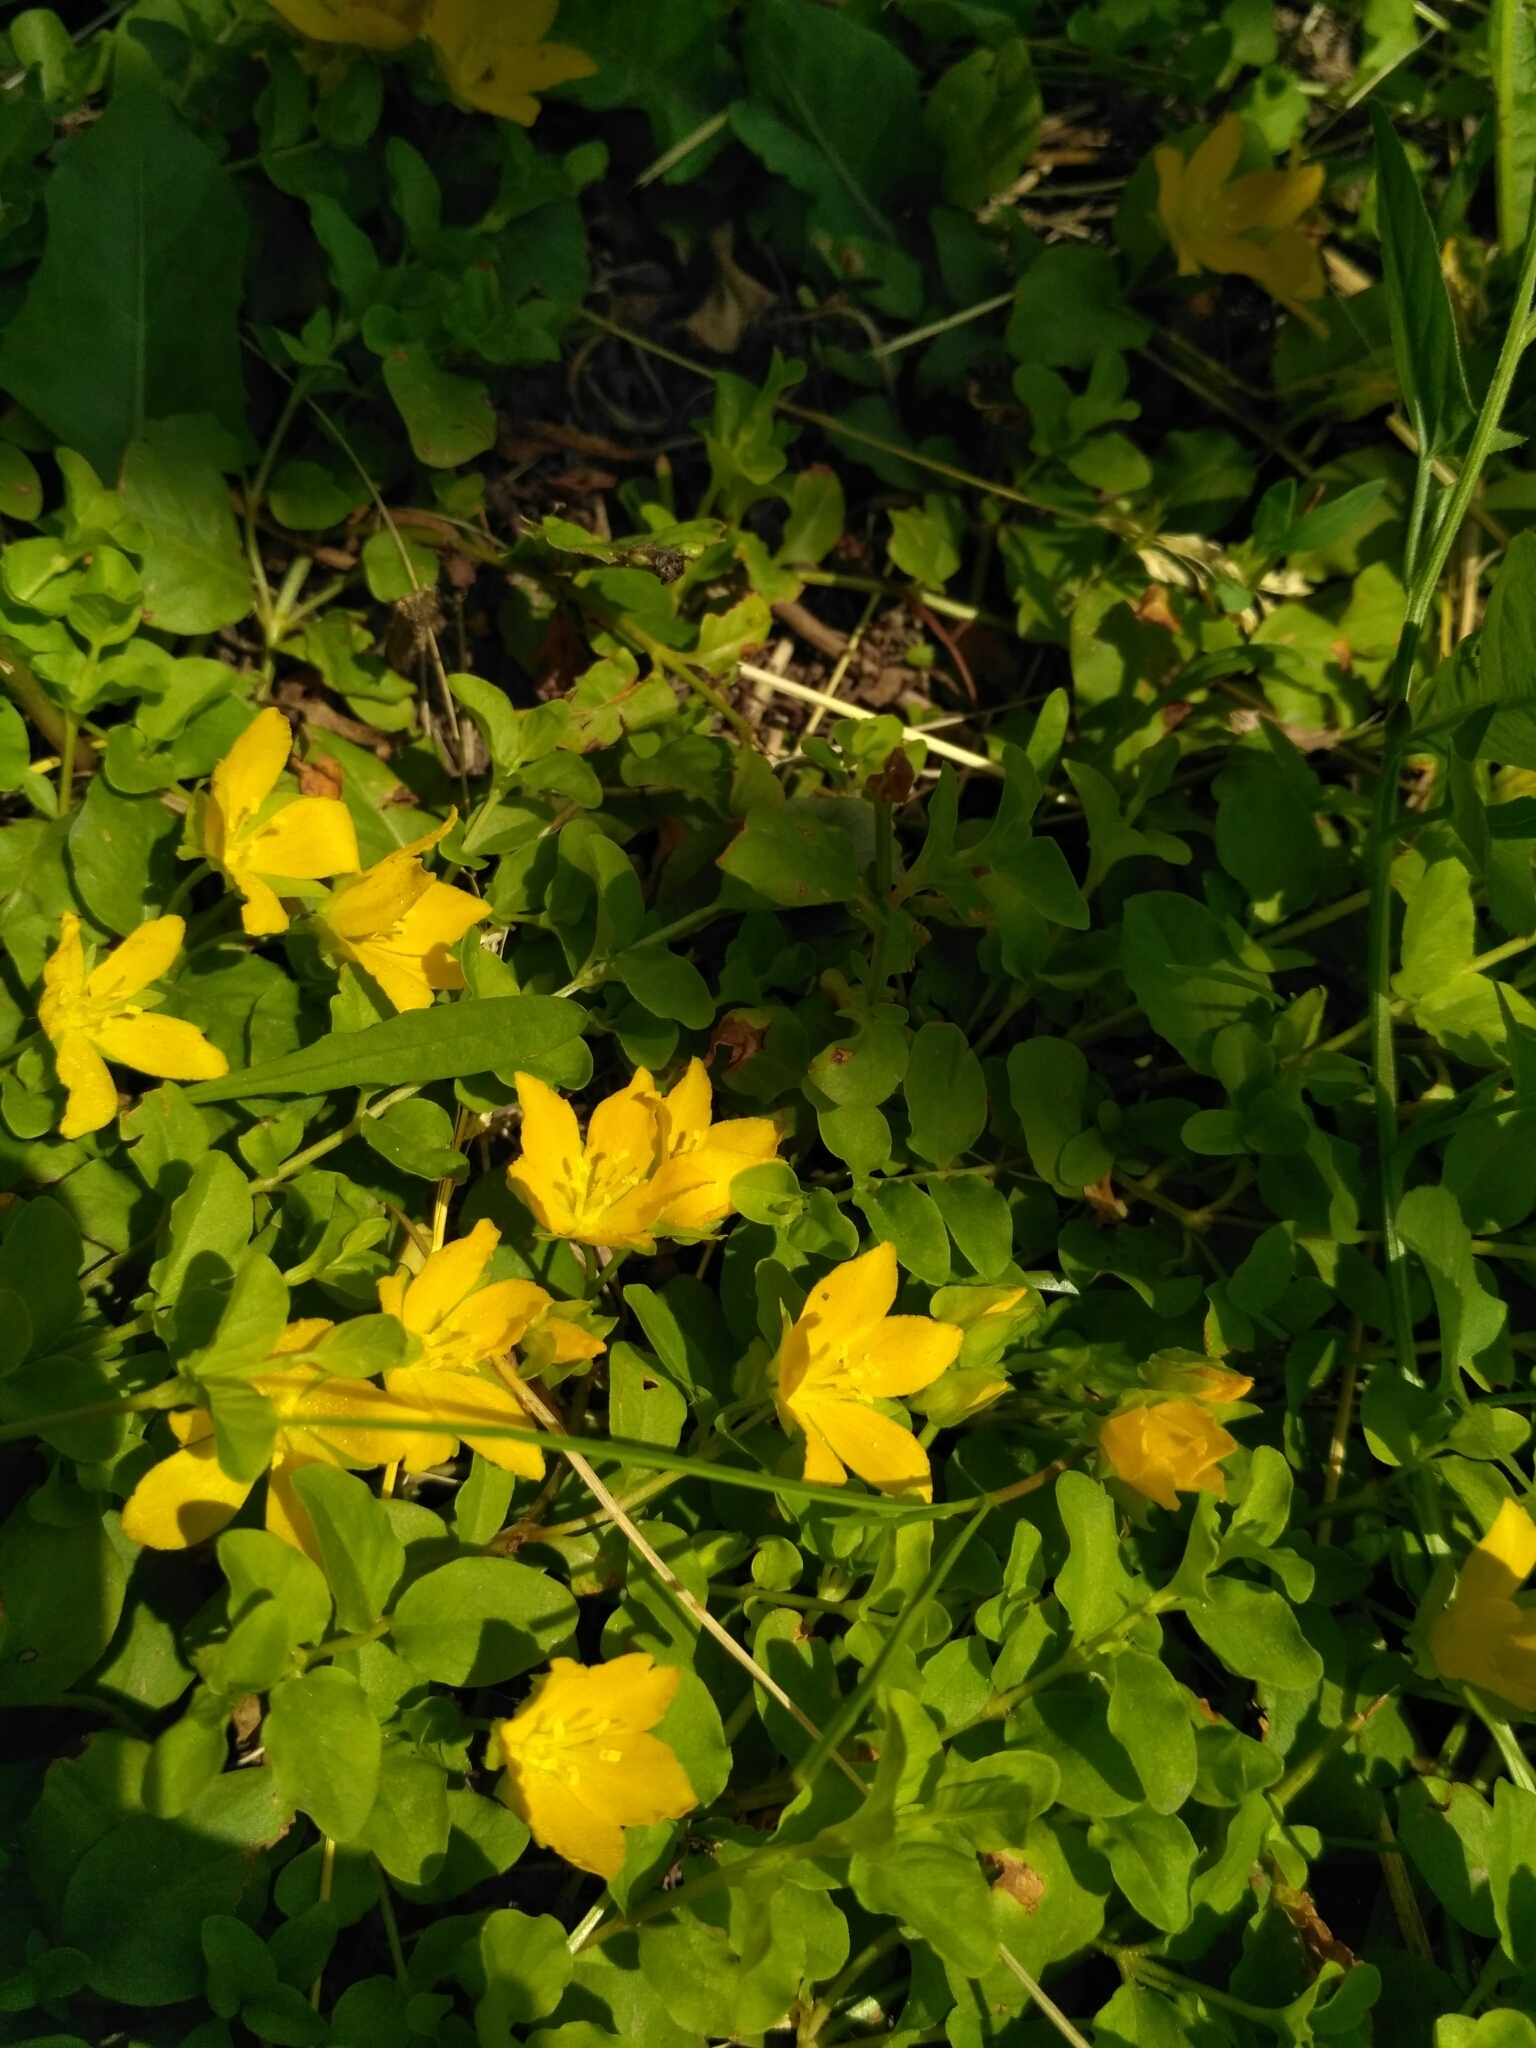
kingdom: Plantae
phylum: Tracheophyta
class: Magnoliopsida
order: Ericales
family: Primulaceae
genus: Lysimachia
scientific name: Lysimachia nummularia
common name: Moneywort
